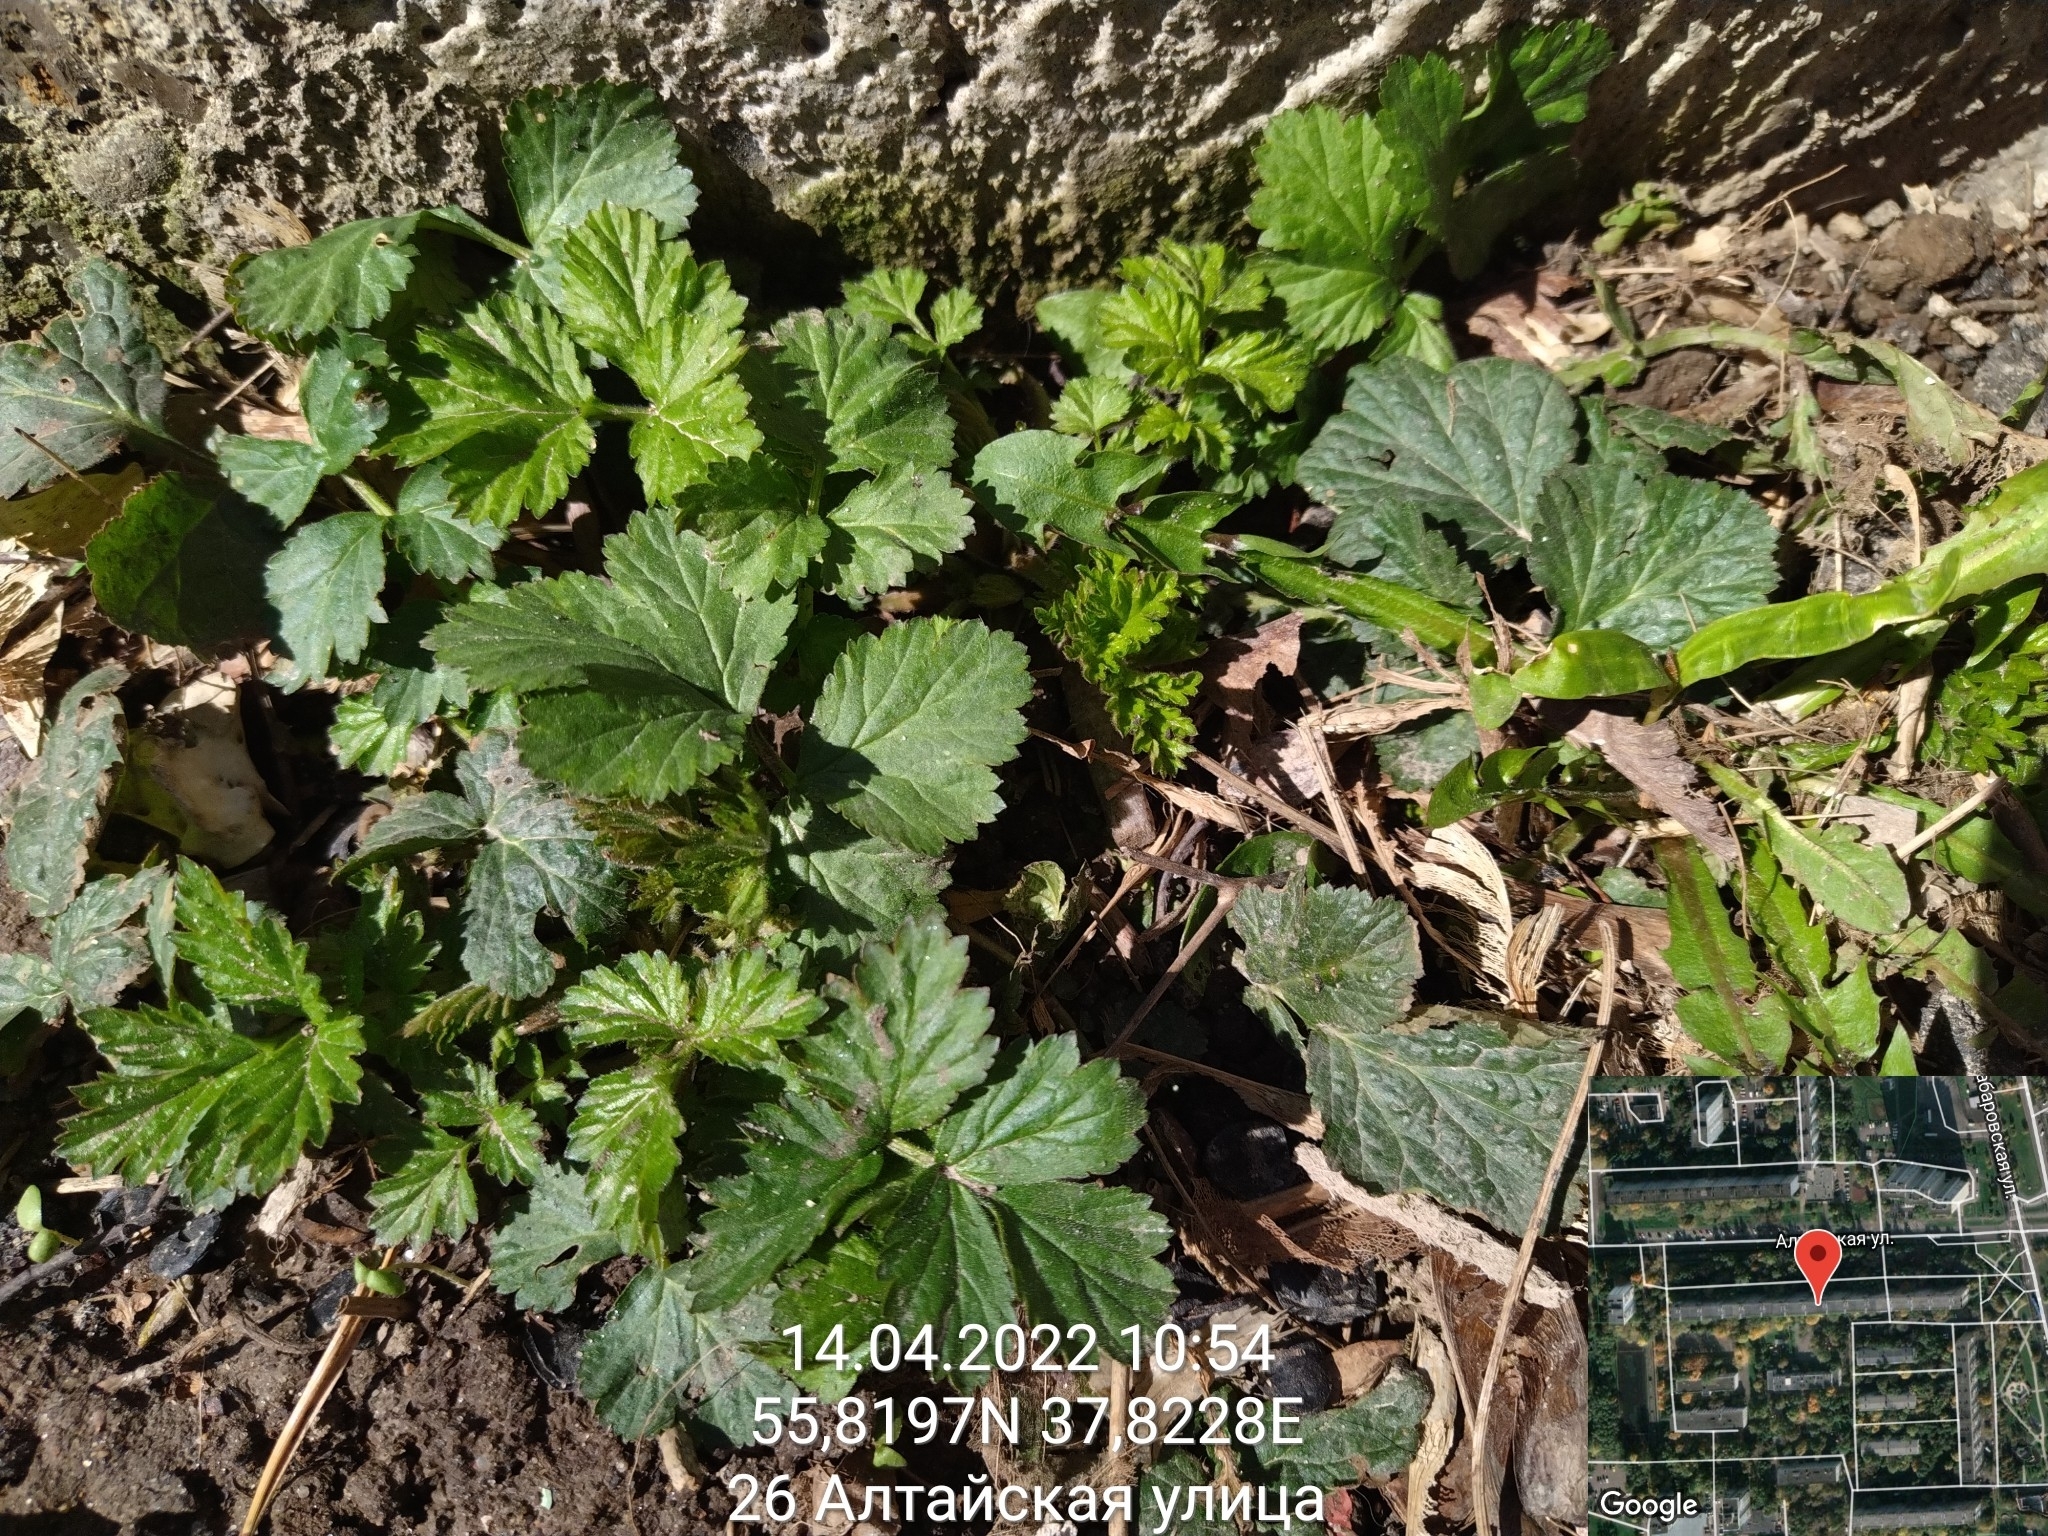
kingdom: Plantae
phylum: Tracheophyta
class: Magnoliopsida
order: Rosales
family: Rosaceae
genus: Geum
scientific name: Geum urbanum
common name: Wood avens
